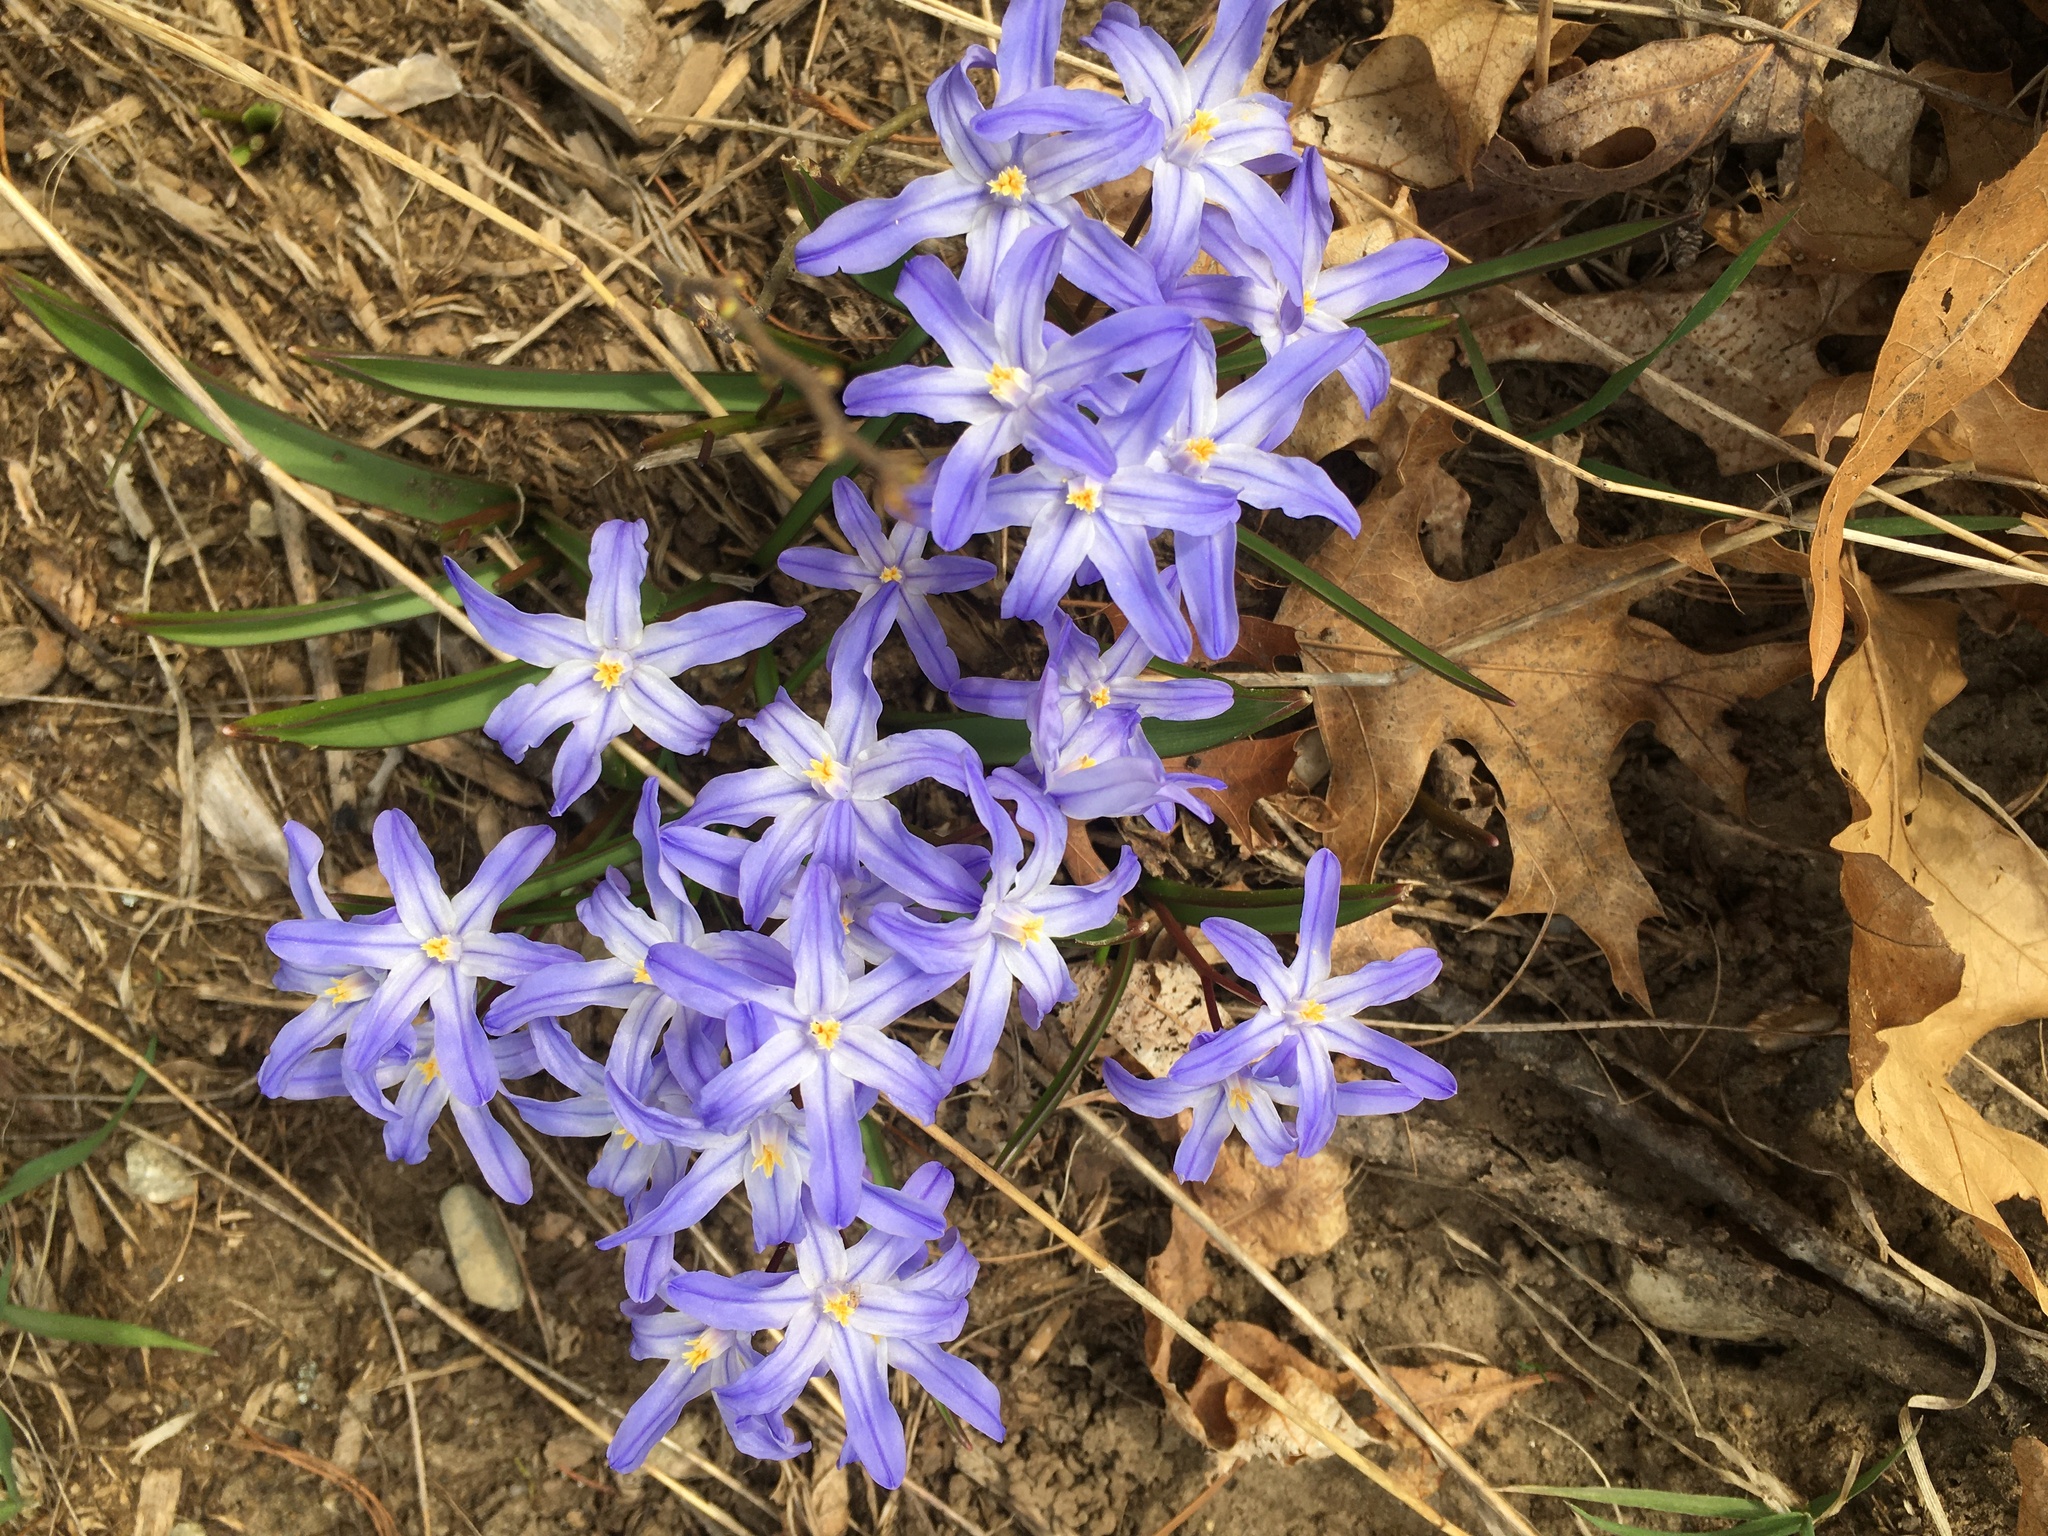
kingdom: Plantae
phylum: Tracheophyta
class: Liliopsida
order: Asparagales
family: Asparagaceae
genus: Scilla
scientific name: Scilla forbesii
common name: Glory-of-the-snow
